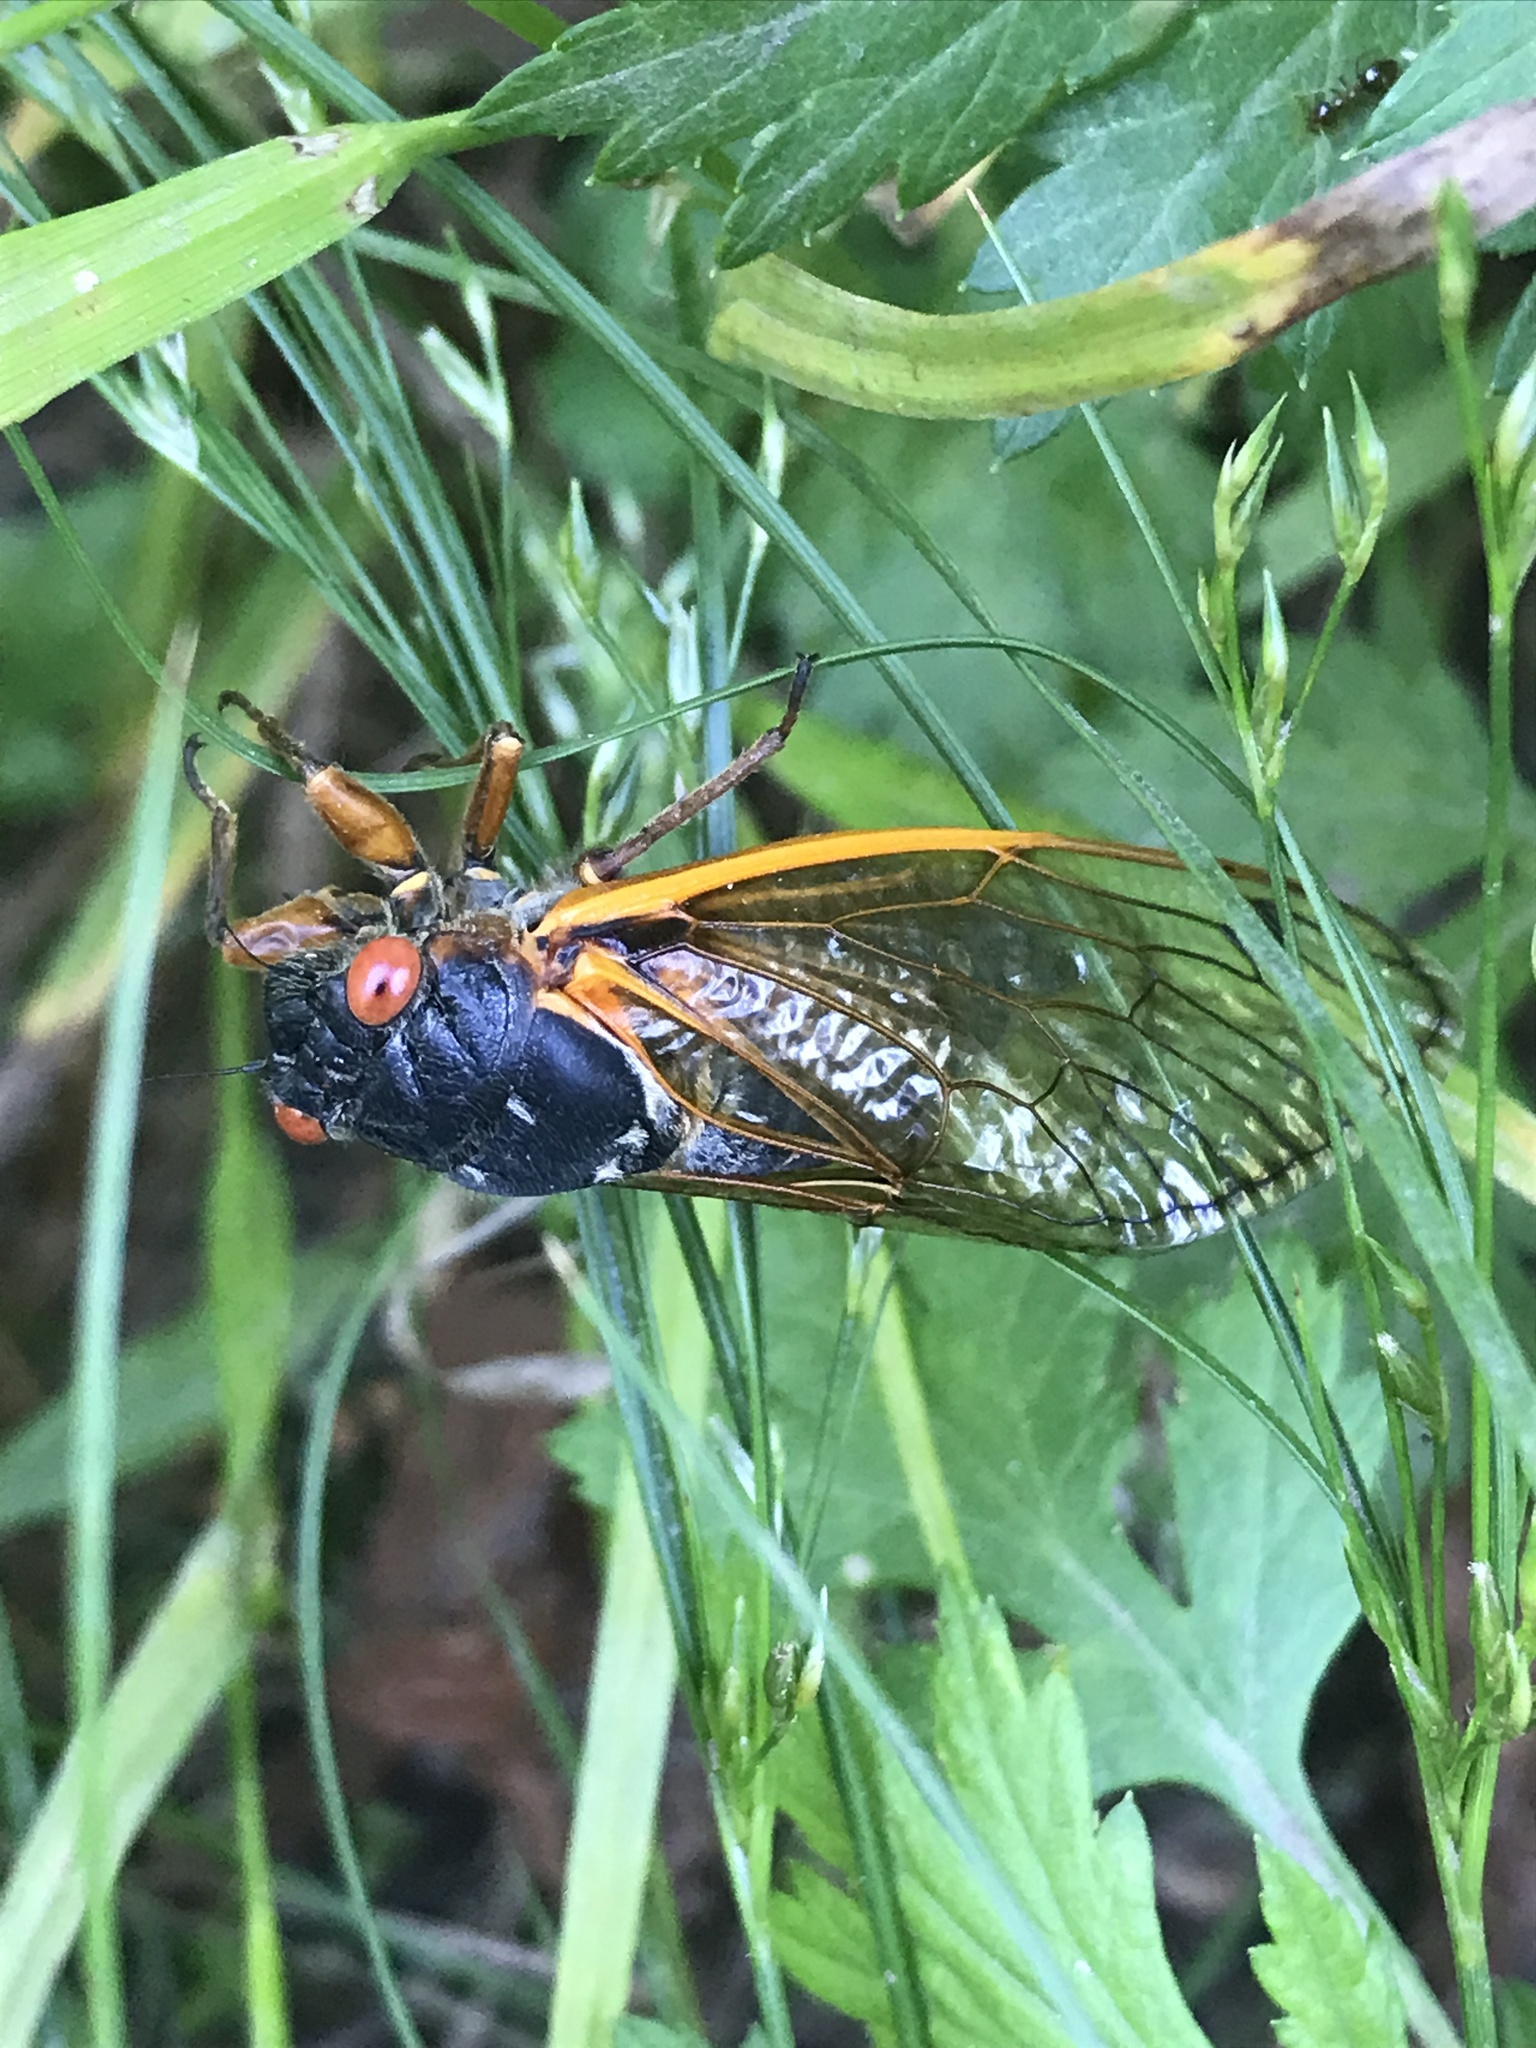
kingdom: Animalia
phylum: Arthropoda
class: Insecta
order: Hemiptera
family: Cicadidae
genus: Magicicada
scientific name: Magicicada septendecim
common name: Periodical cicada
